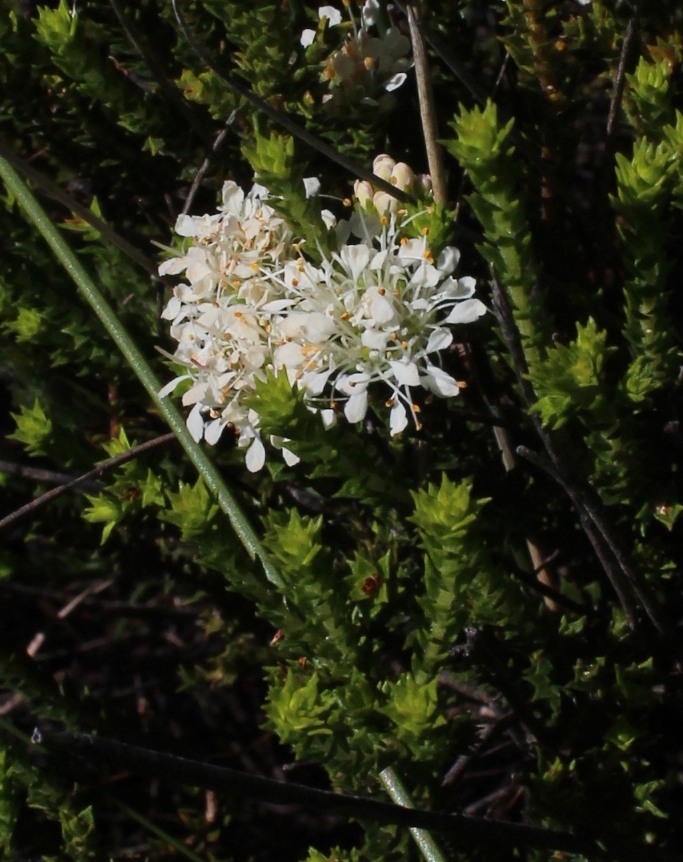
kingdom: Plantae
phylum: Tracheophyta
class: Magnoliopsida
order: Sapindales
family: Rutaceae
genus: Agathosma
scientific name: Agathosma imbricata
